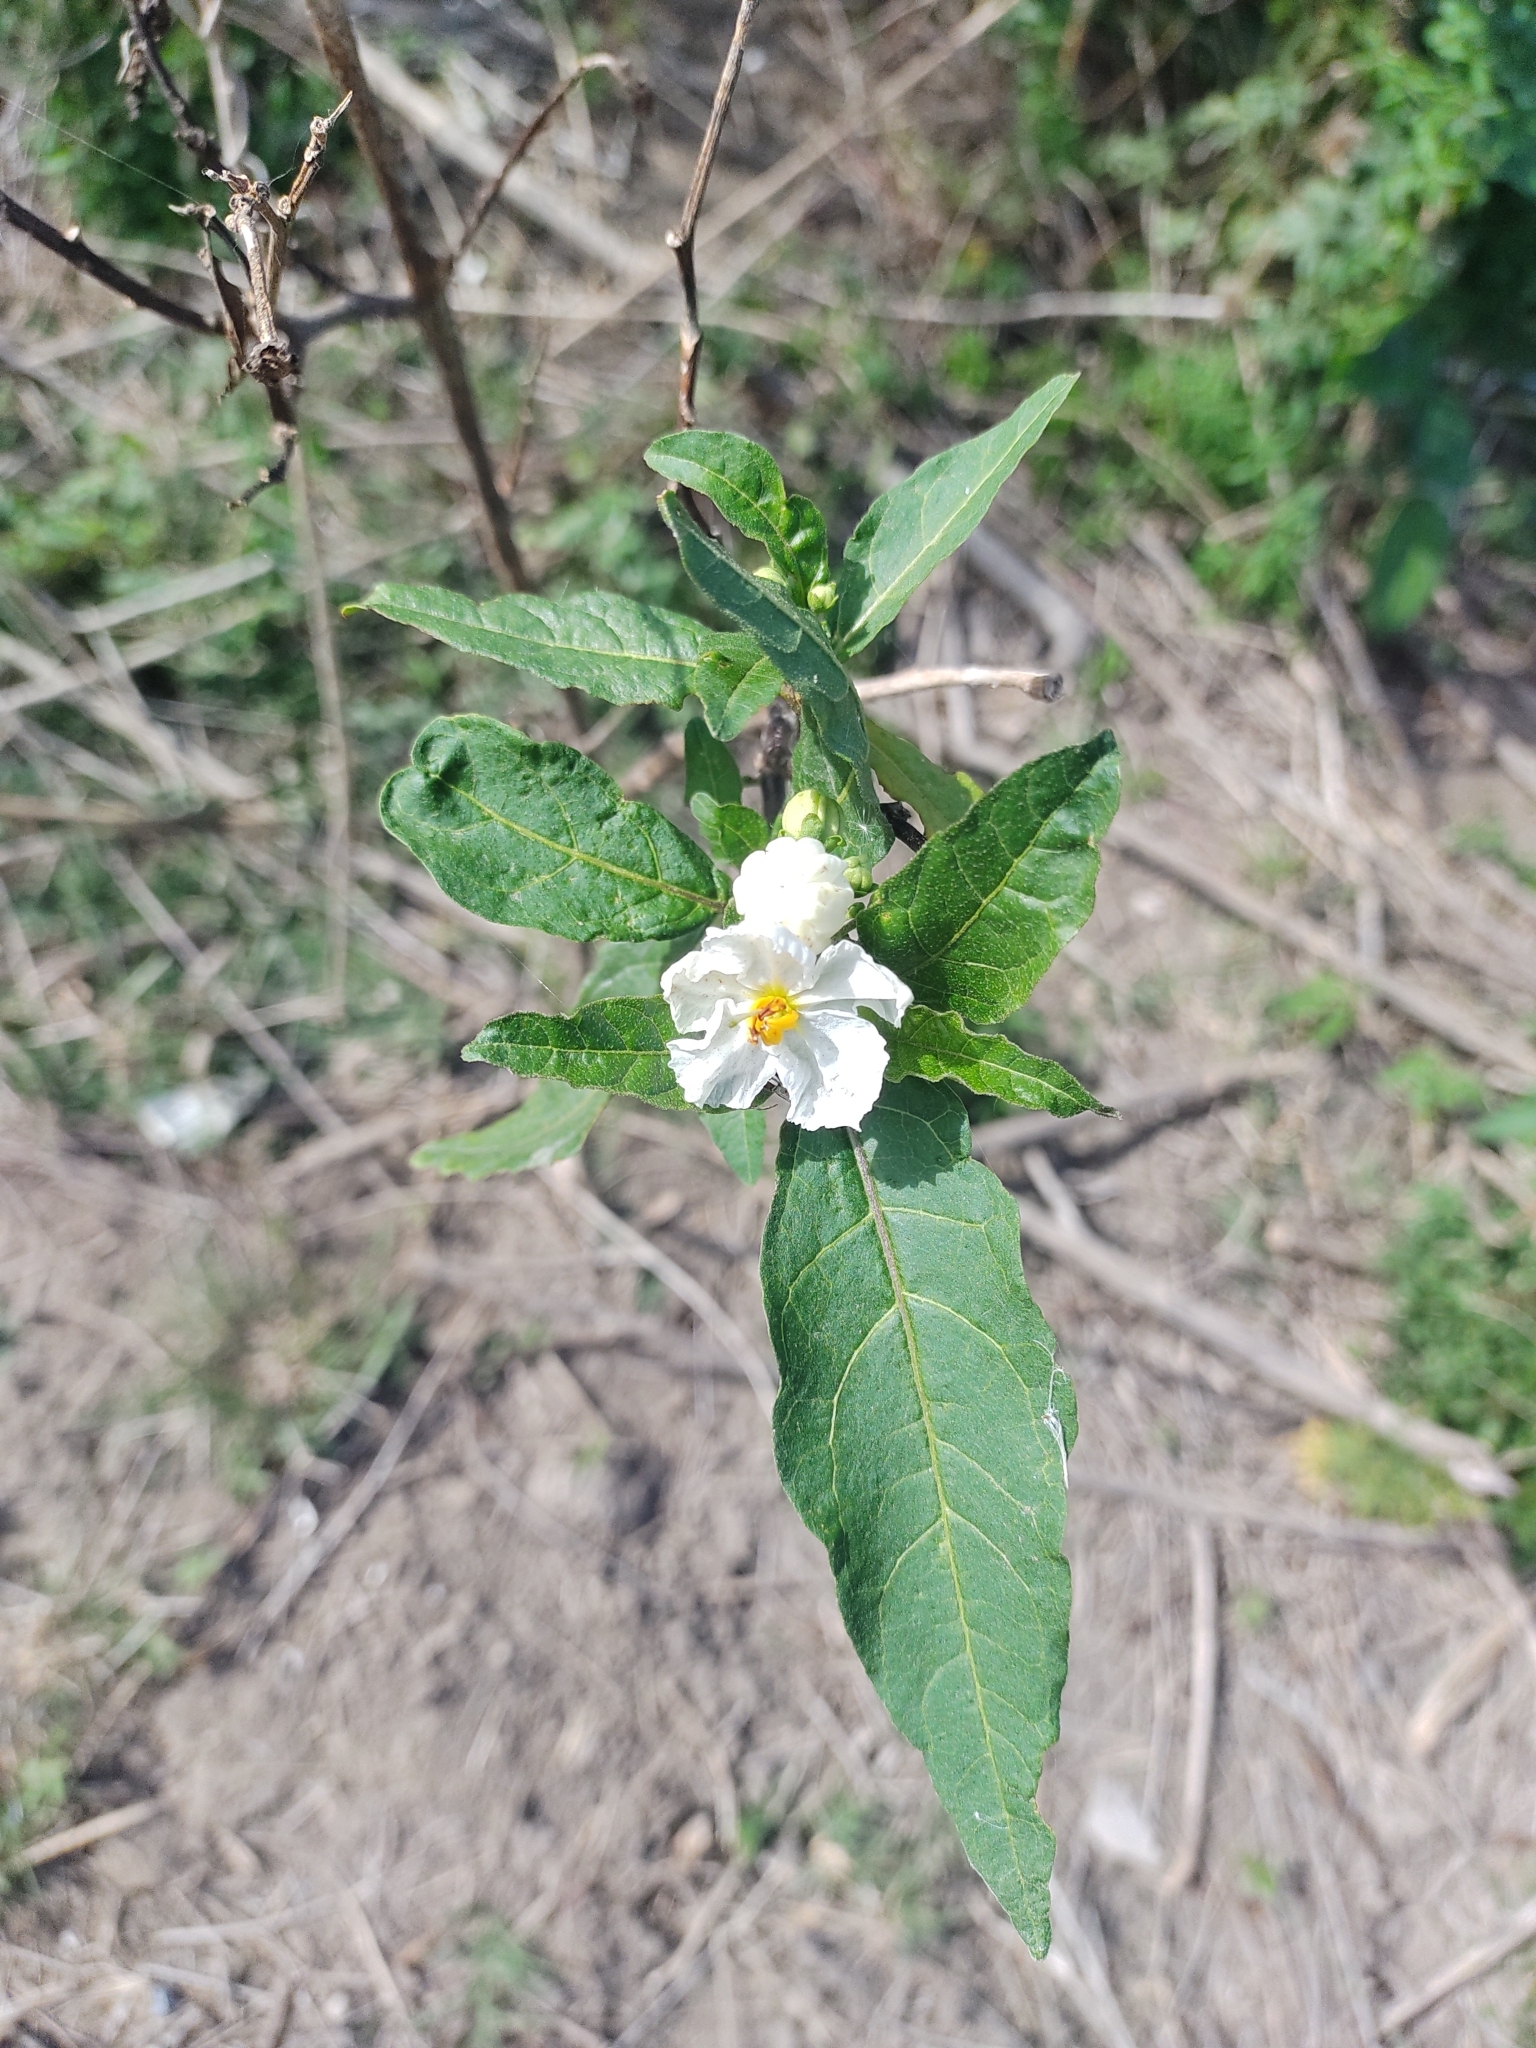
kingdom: Plantae
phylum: Tracheophyta
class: Magnoliopsida
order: Solanales
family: Solanaceae
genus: Solanum
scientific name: Solanum bonariense
